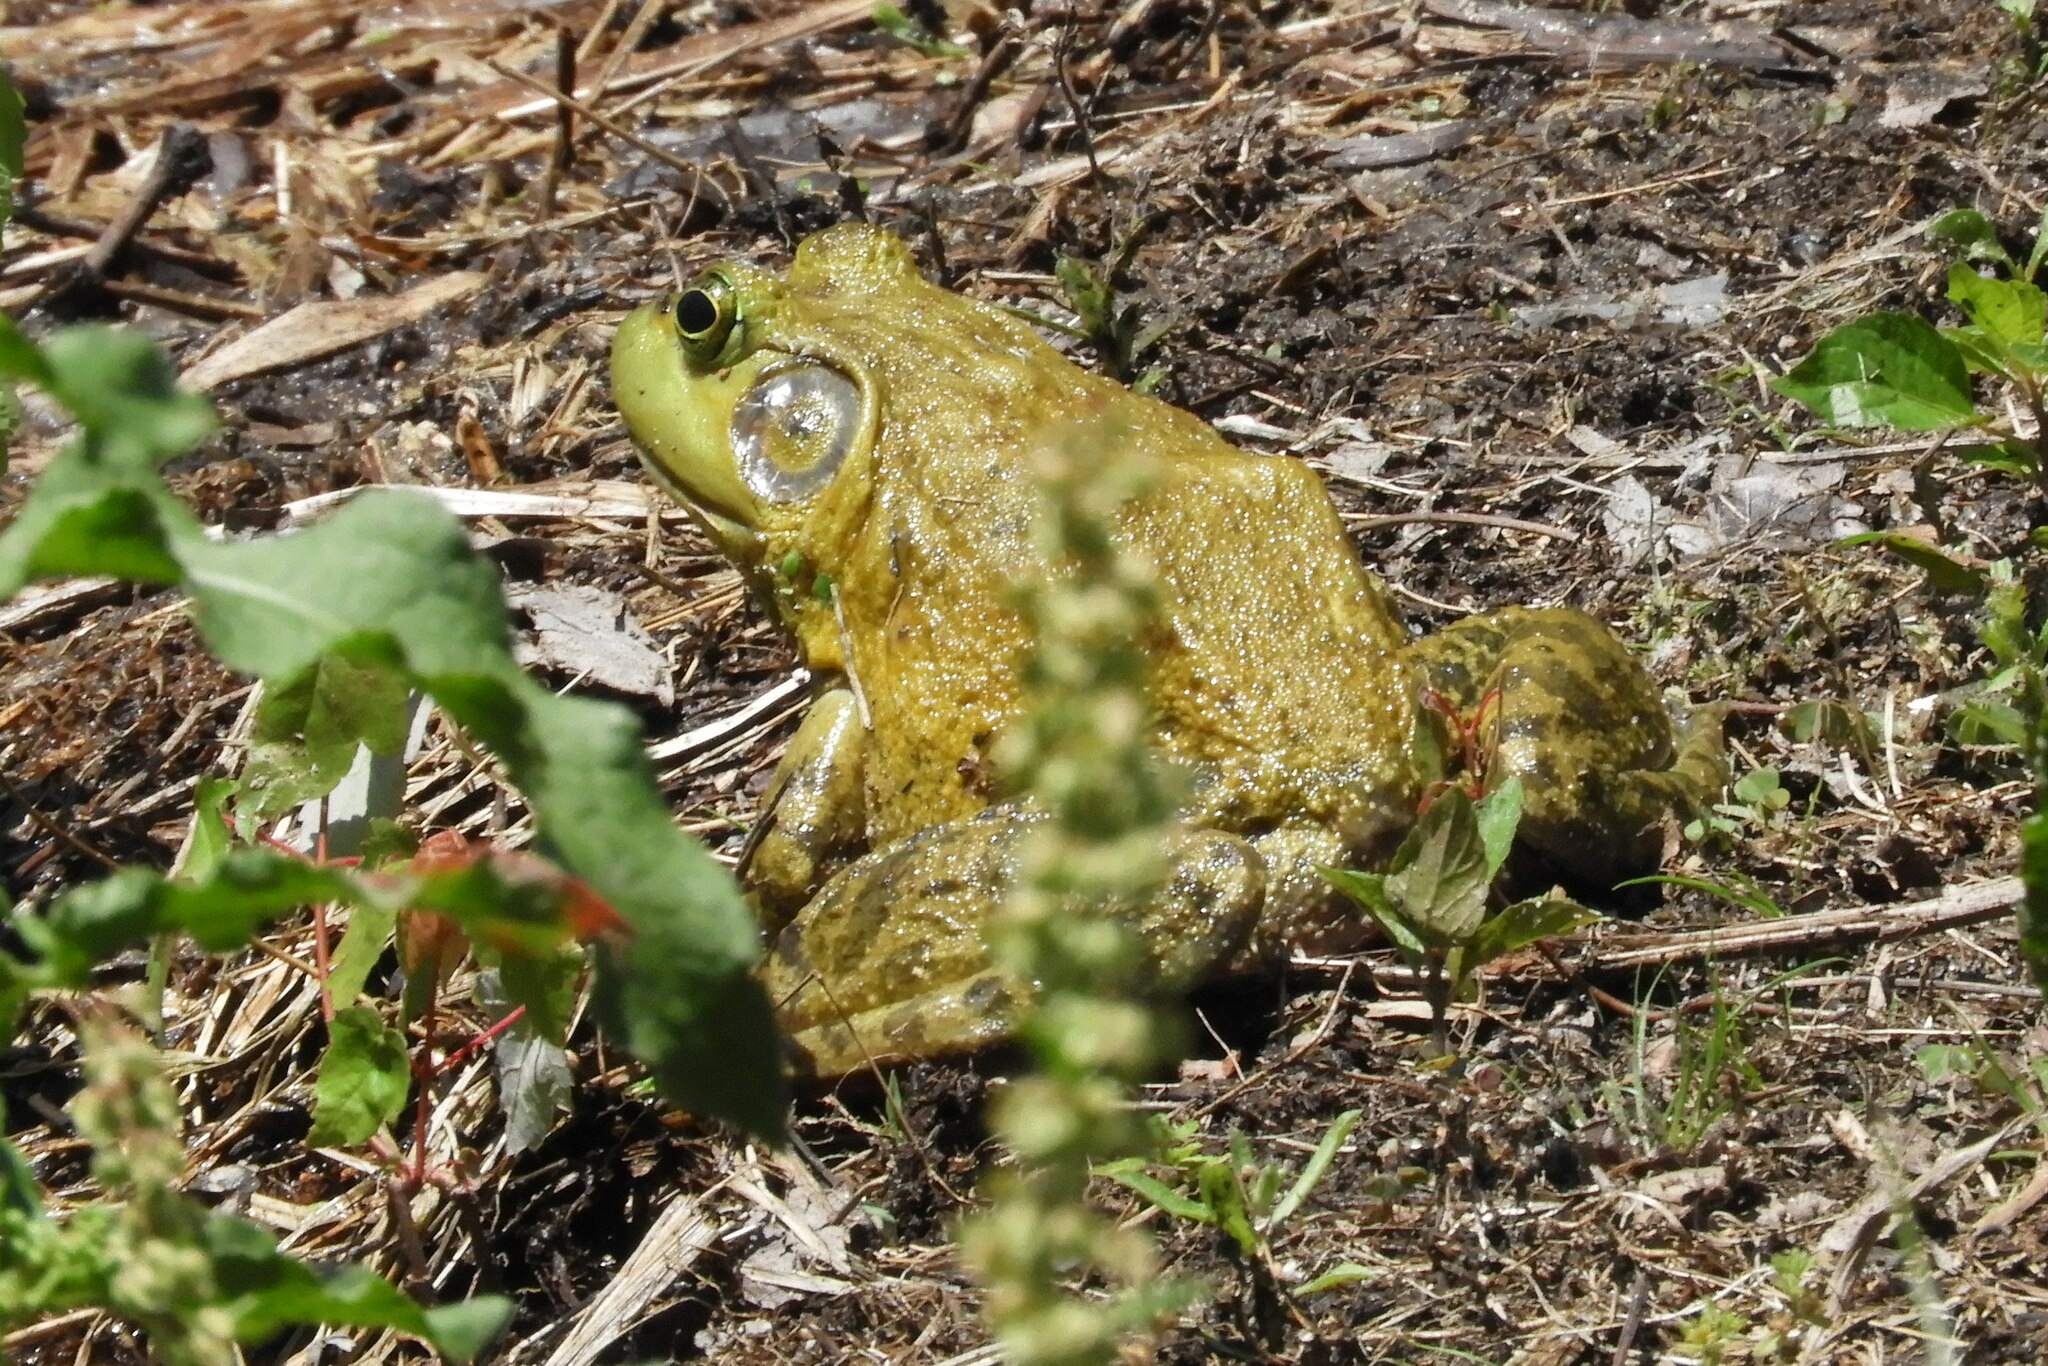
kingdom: Animalia
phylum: Chordata
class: Amphibia
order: Anura
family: Ranidae
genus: Lithobates
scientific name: Lithobates catesbeianus
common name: American bullfrog
